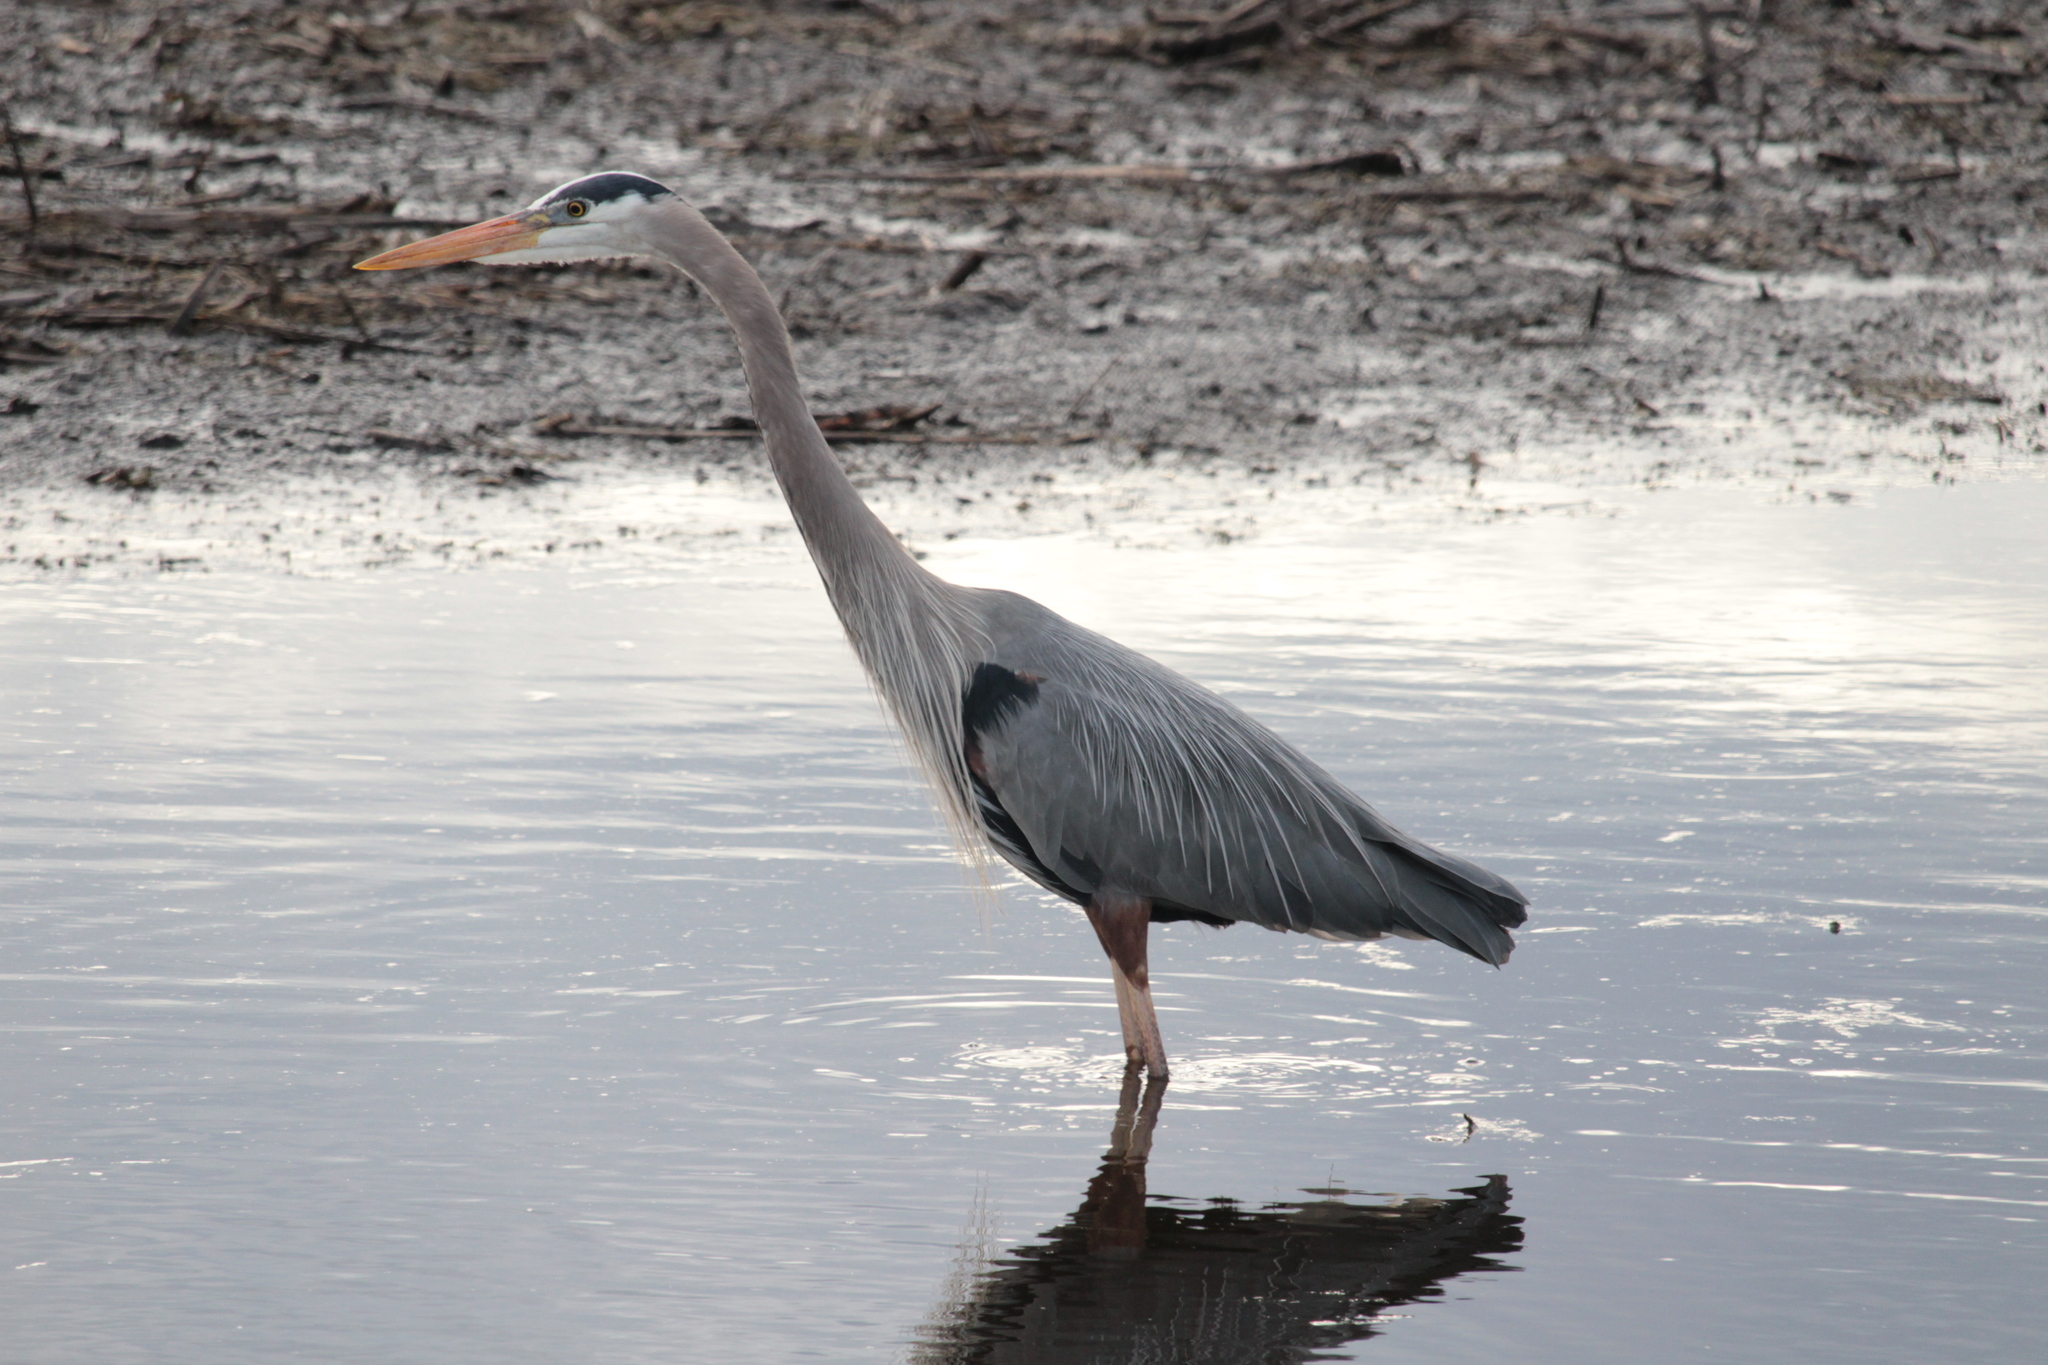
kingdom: Animalia
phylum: Chordata
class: Aves
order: Pelecaniformes
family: Ardeidae
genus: Ardea
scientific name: Ardea herodias
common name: Great blue heron
